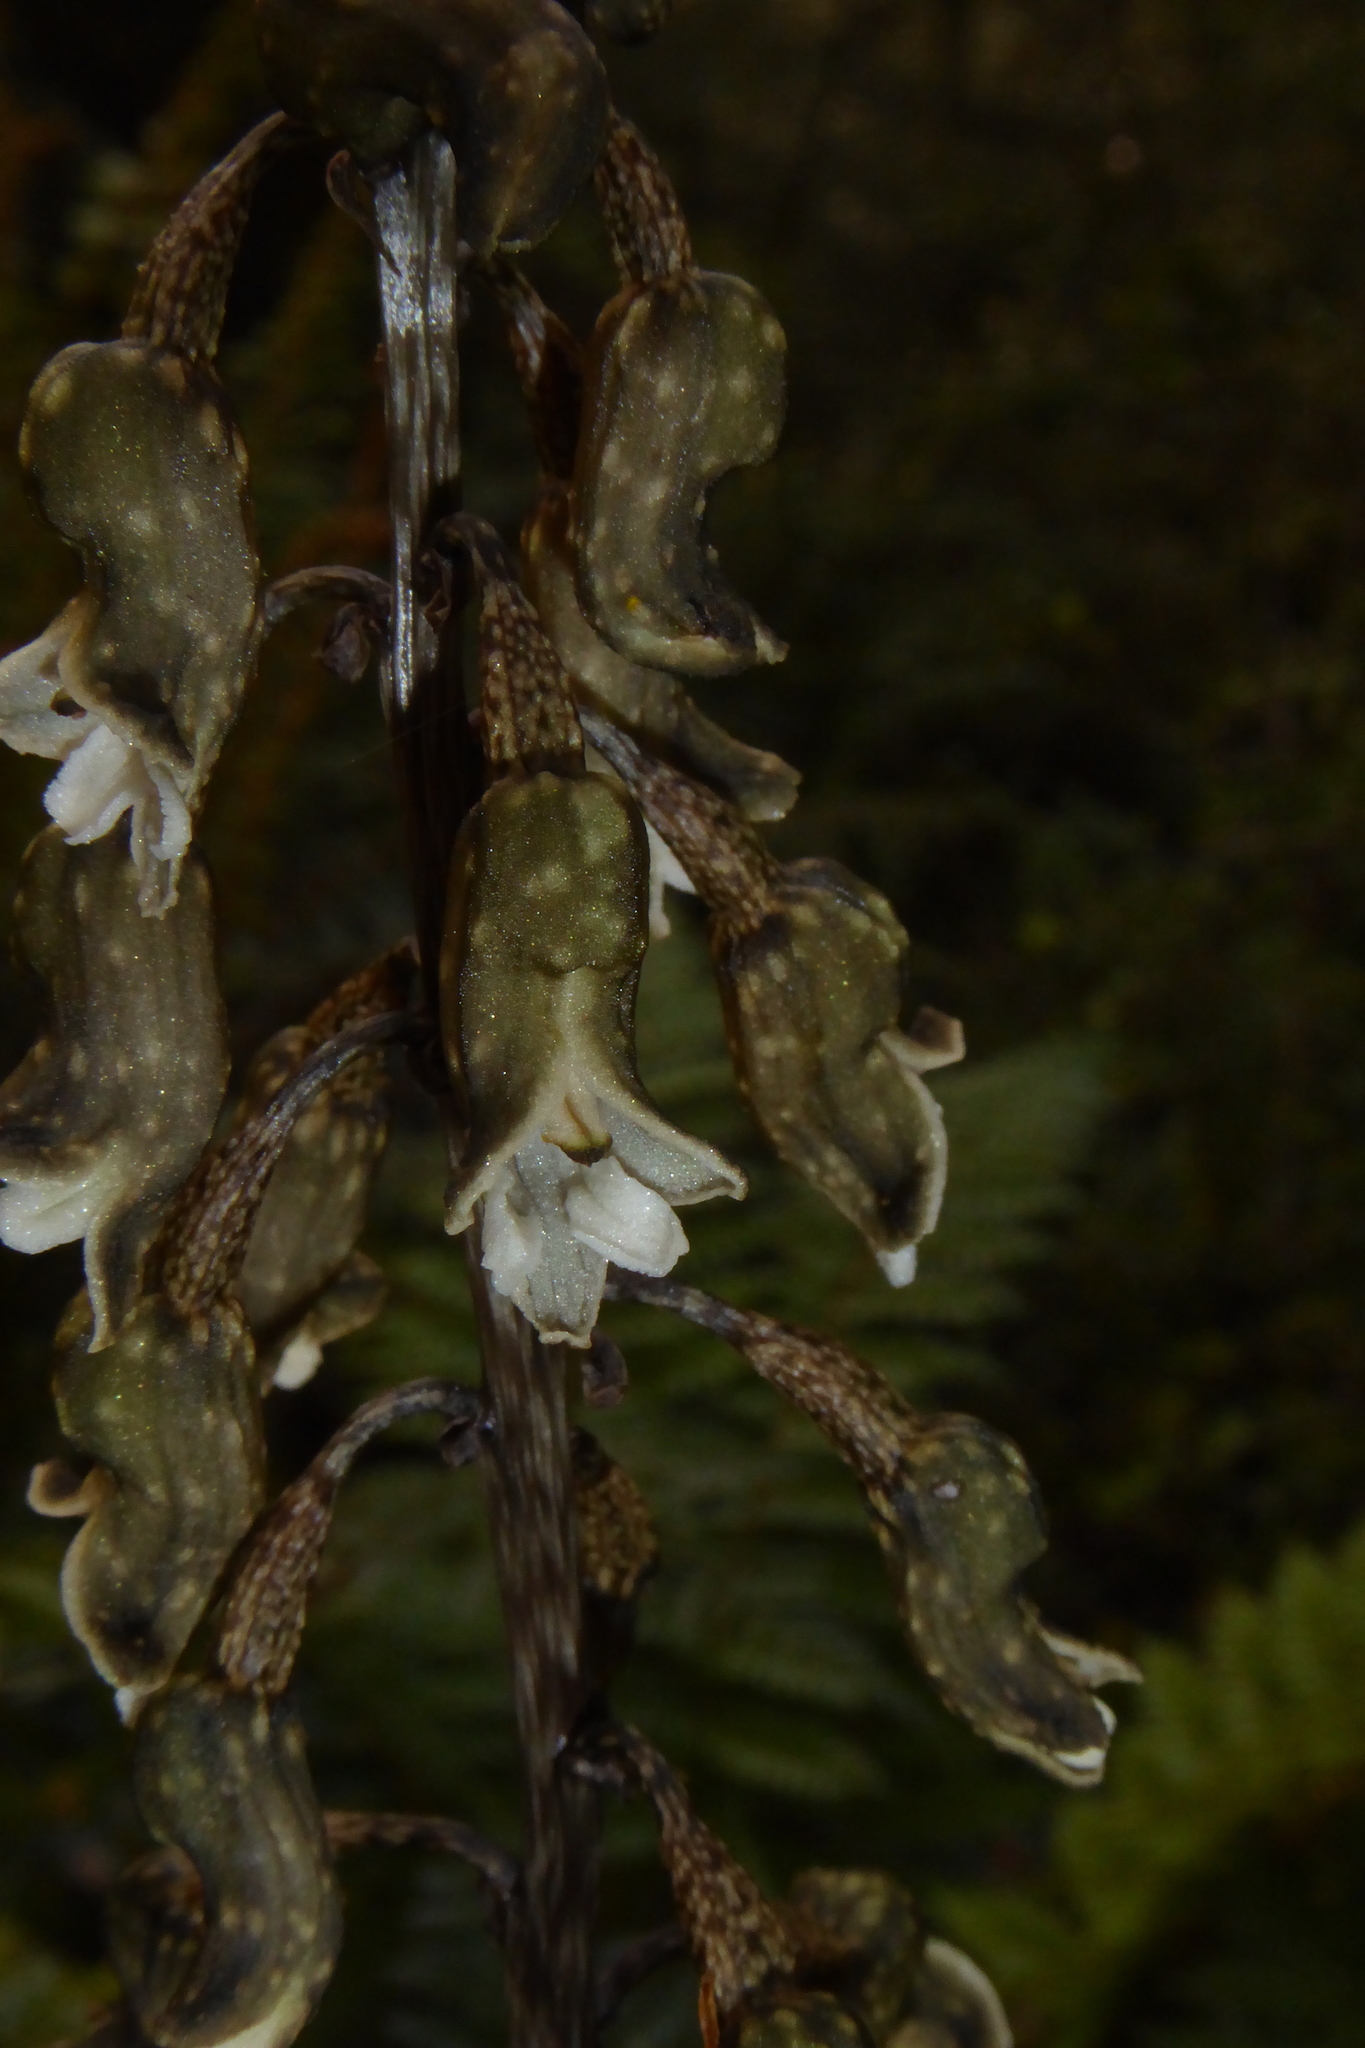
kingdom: Plantae
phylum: Tracheophyta
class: Liliopsida
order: Asparagales
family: Orchidaceae
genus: Gastrodia
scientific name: Gastrodia cunninghamii
